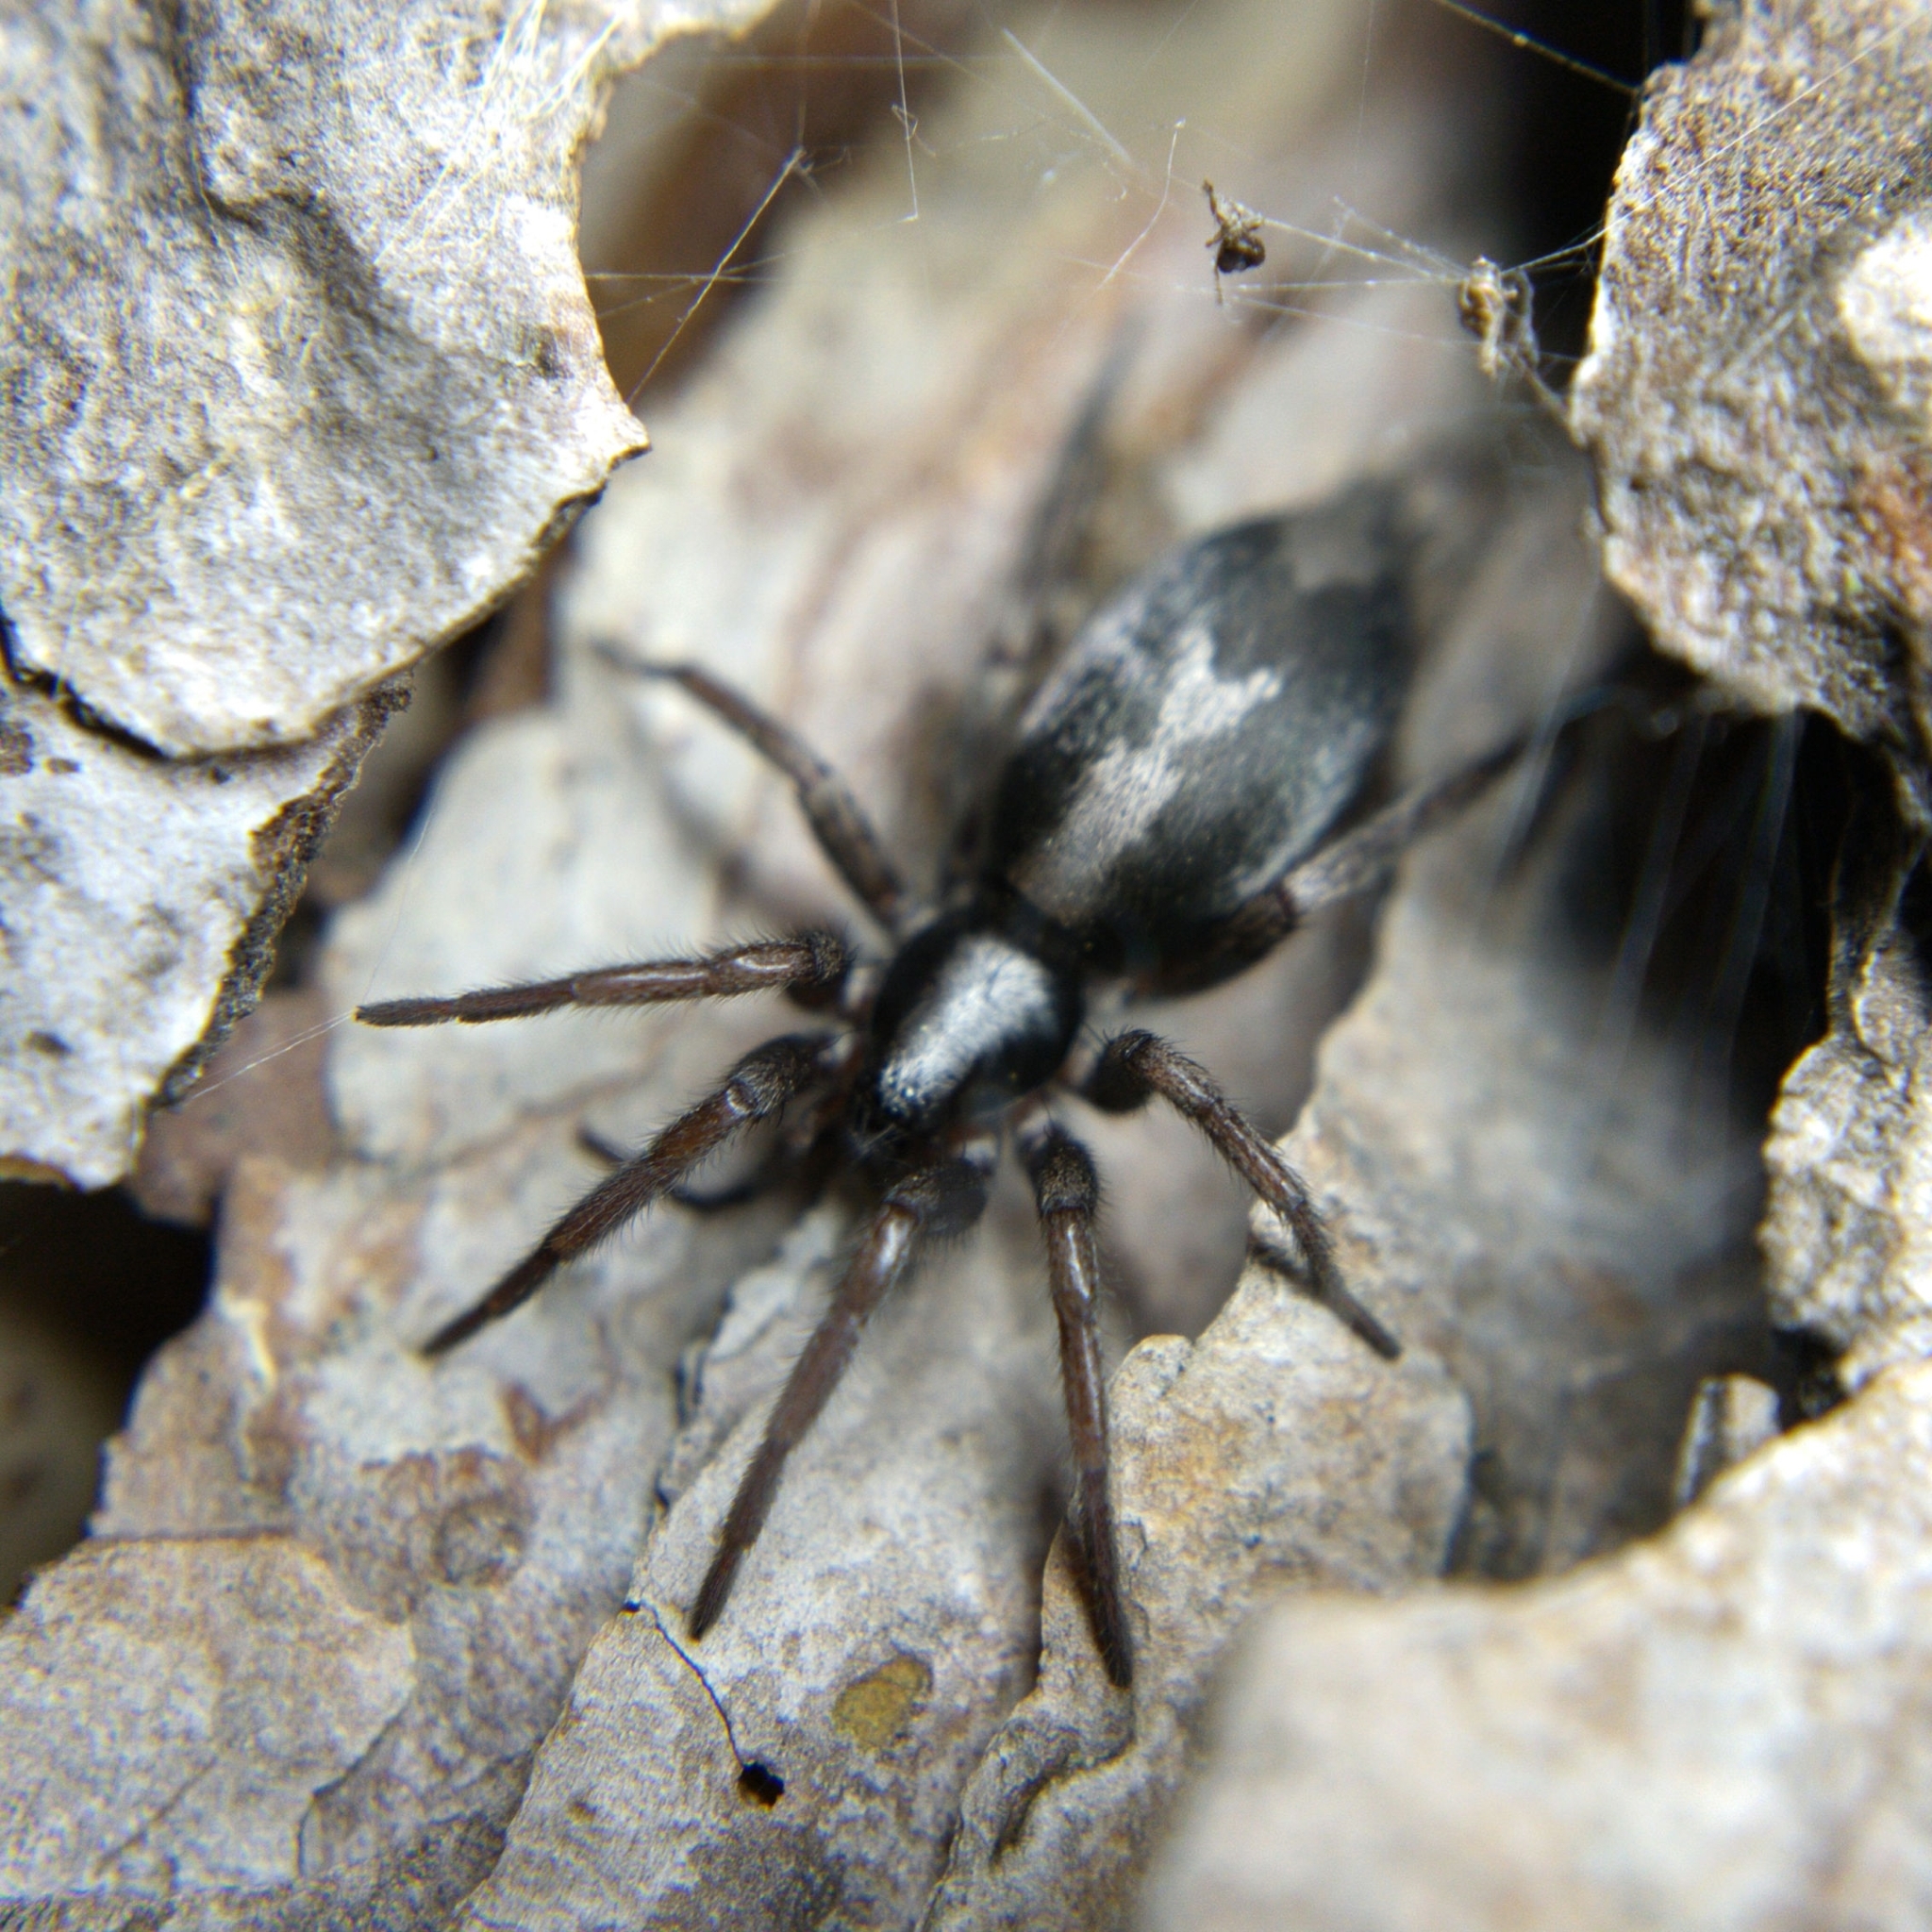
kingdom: Animalia
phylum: Arthropoda
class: Arachnida
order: Araneae
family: Gnaphosidae
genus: Herpyllus
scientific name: Herpyllus ecclesiasticus
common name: Eastern parson spider
